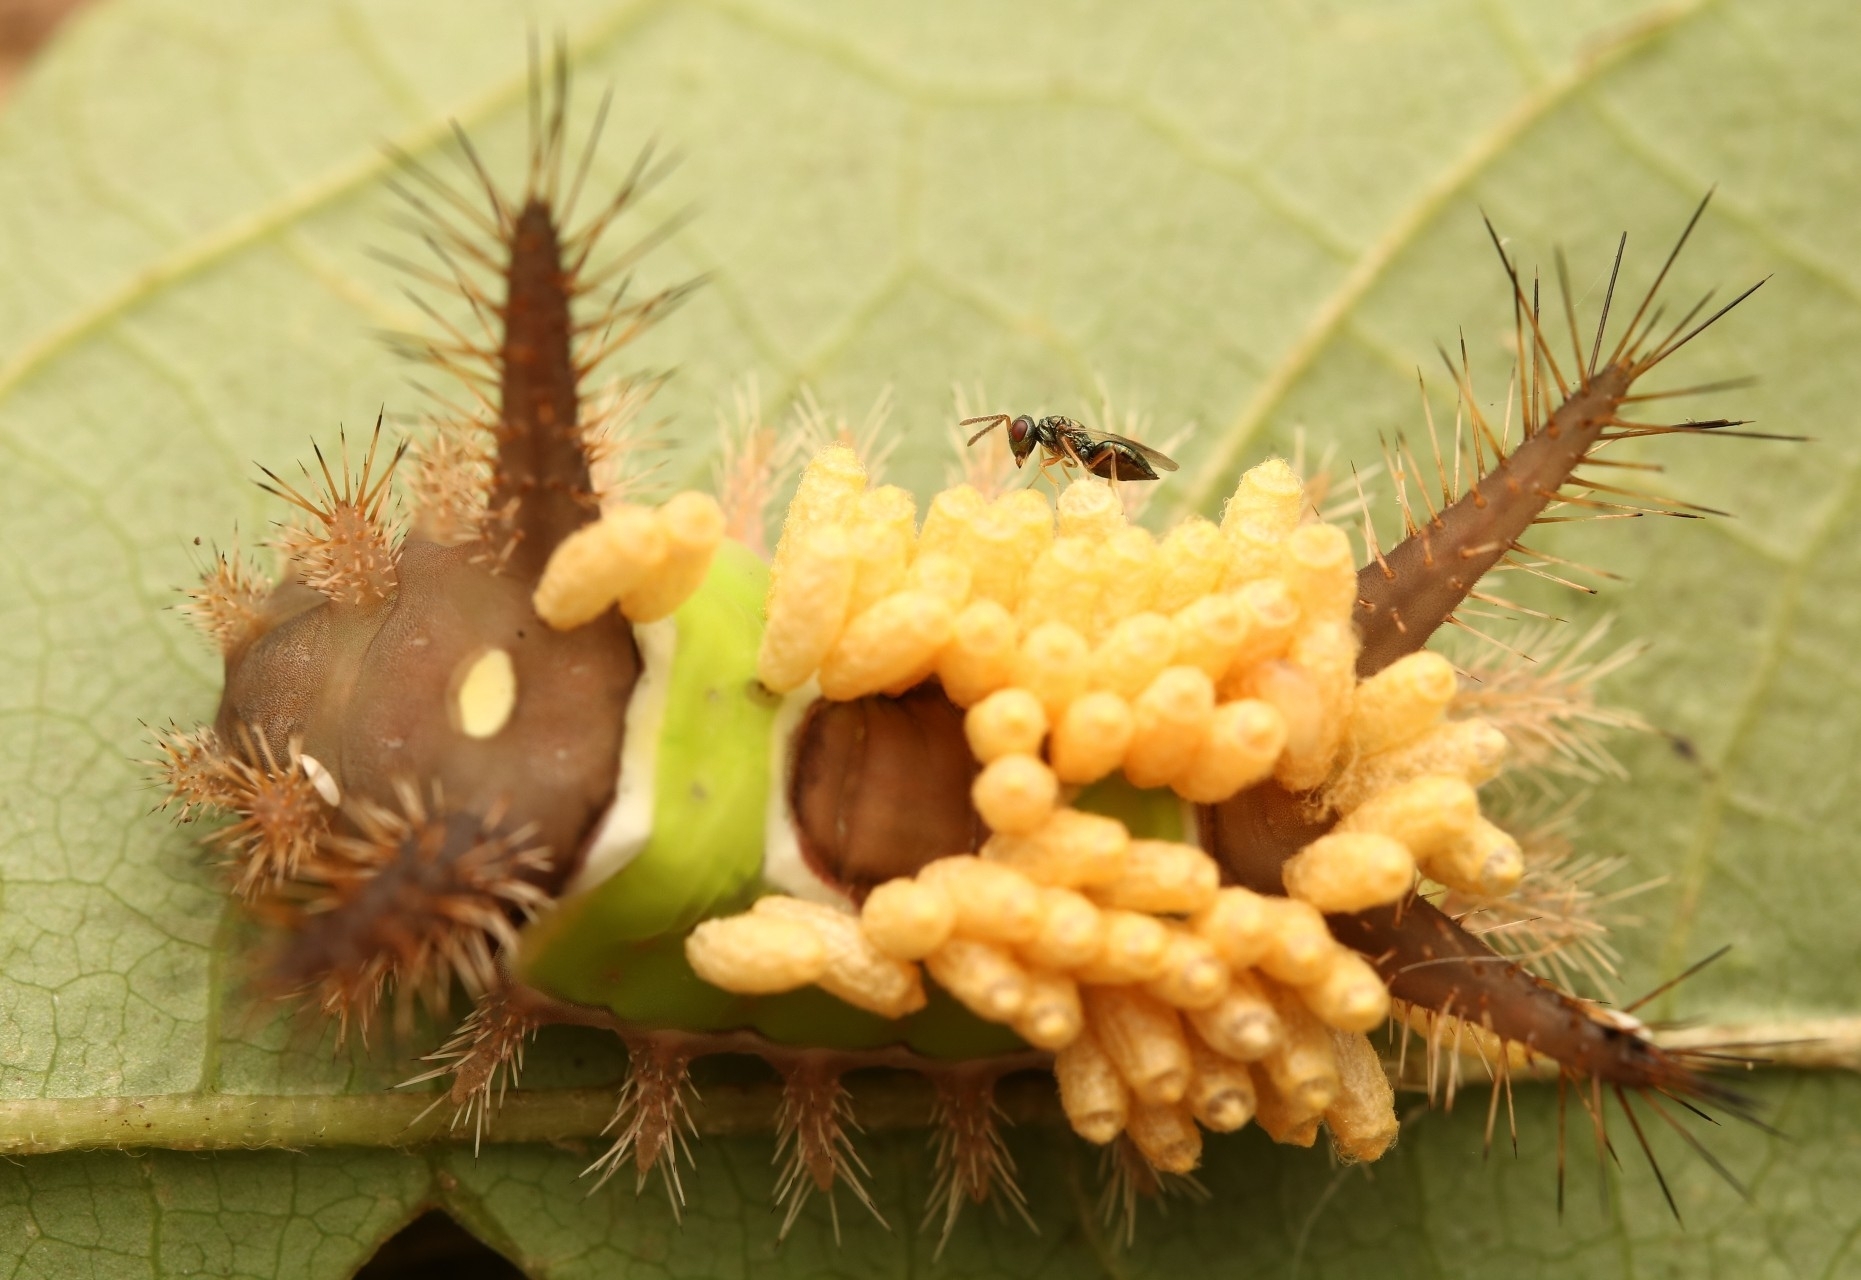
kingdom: Animalia
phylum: Arthropoda
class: Insecta
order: Lepidoptera
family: Limacodidae
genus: Acharia
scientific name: Acharia stimulea
